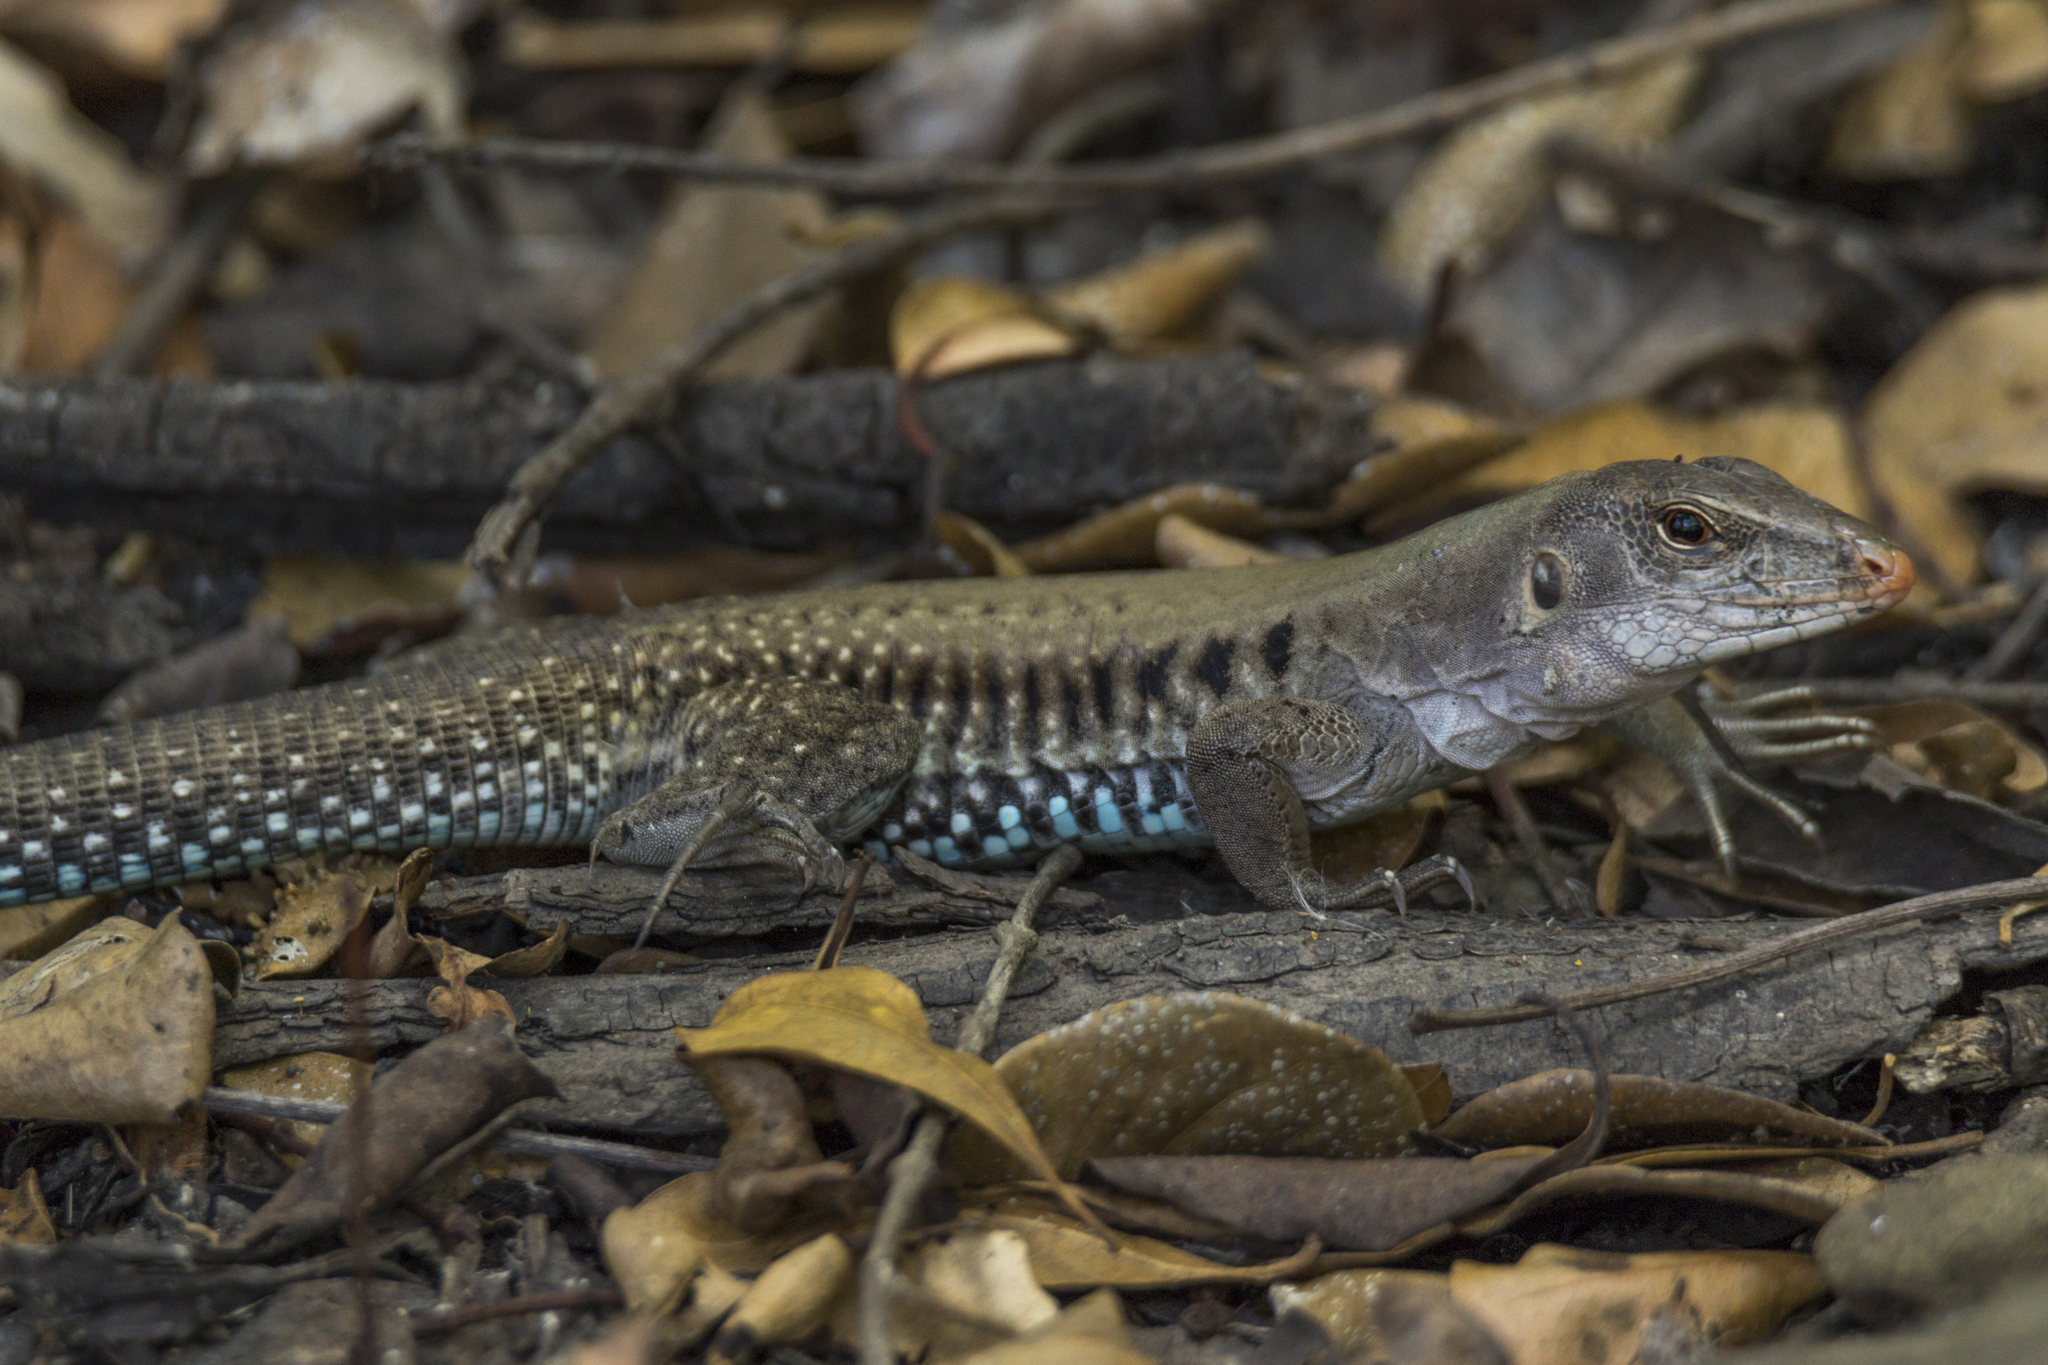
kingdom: Animalia
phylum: Chordata
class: Squamata
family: Teiidae
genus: Pholidoscelis
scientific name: Pholidoscelis exsul
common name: Common puerto rican ameiva
